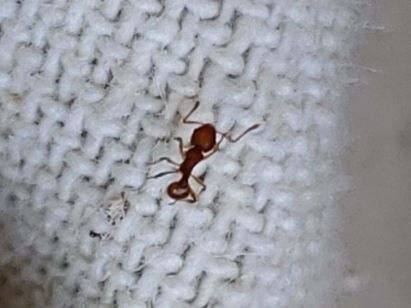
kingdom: Animalia
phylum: Arthropoda
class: Insecta
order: Hymenoptera
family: Formicidae
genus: Wasmannia
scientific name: Wasmannia auropunctata
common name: Little fire ant
